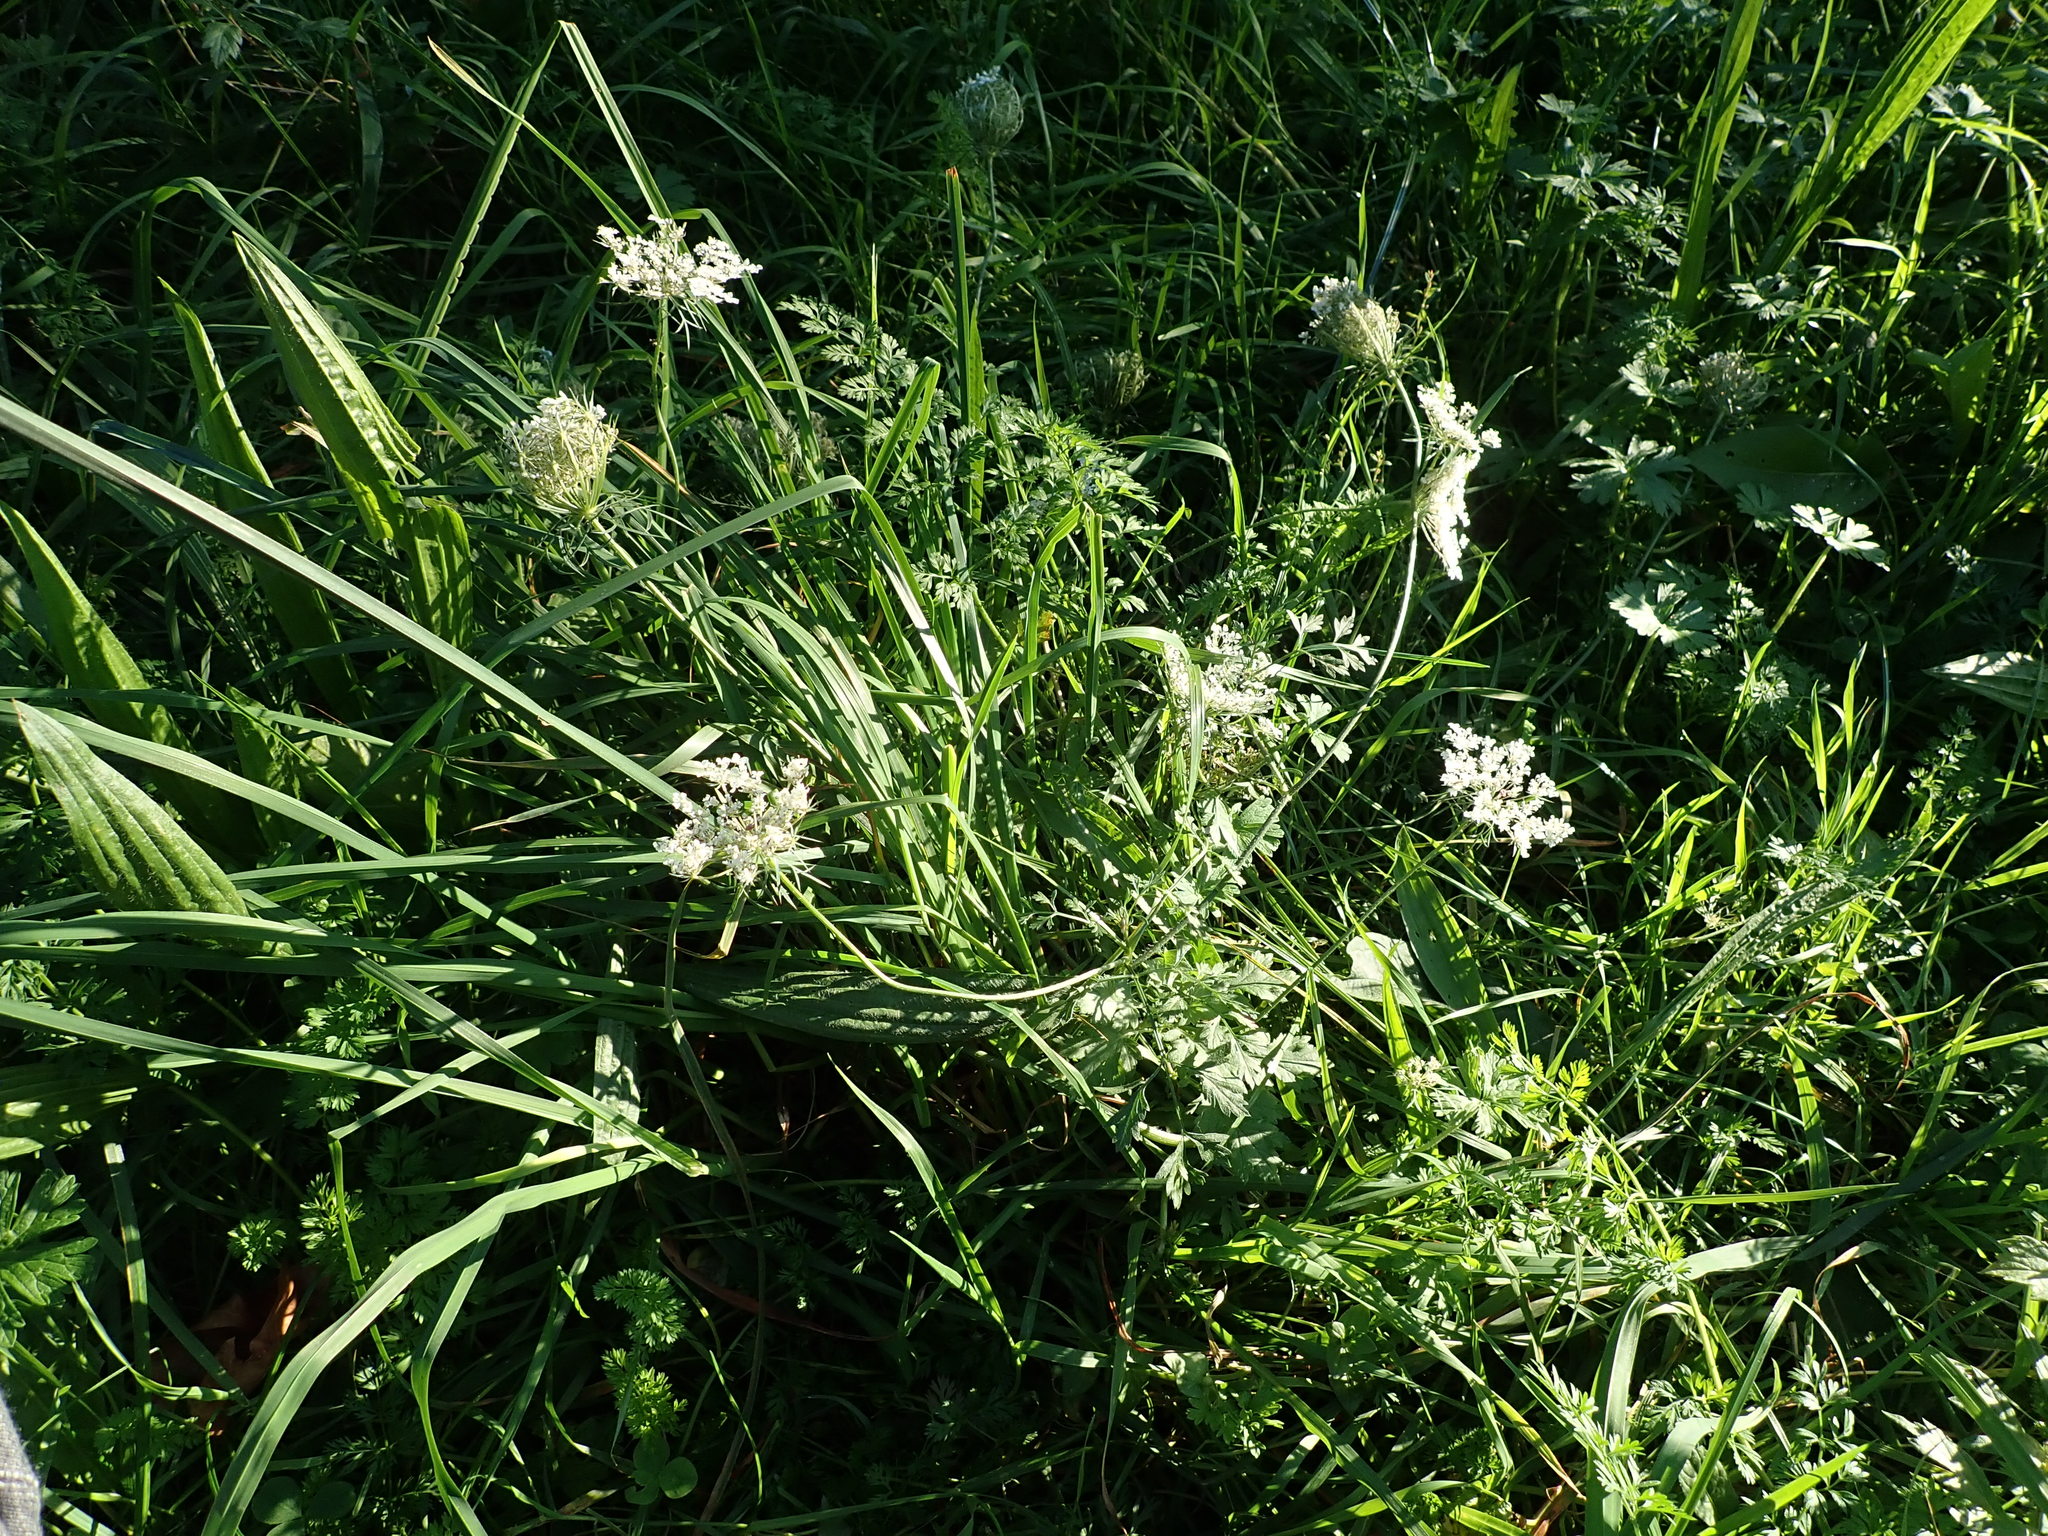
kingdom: Plantae
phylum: Tracheophyta
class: Magnoliopsida
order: Apiales
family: Apiaceae
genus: Daucus
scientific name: Daucus carota
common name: Wild carrot
